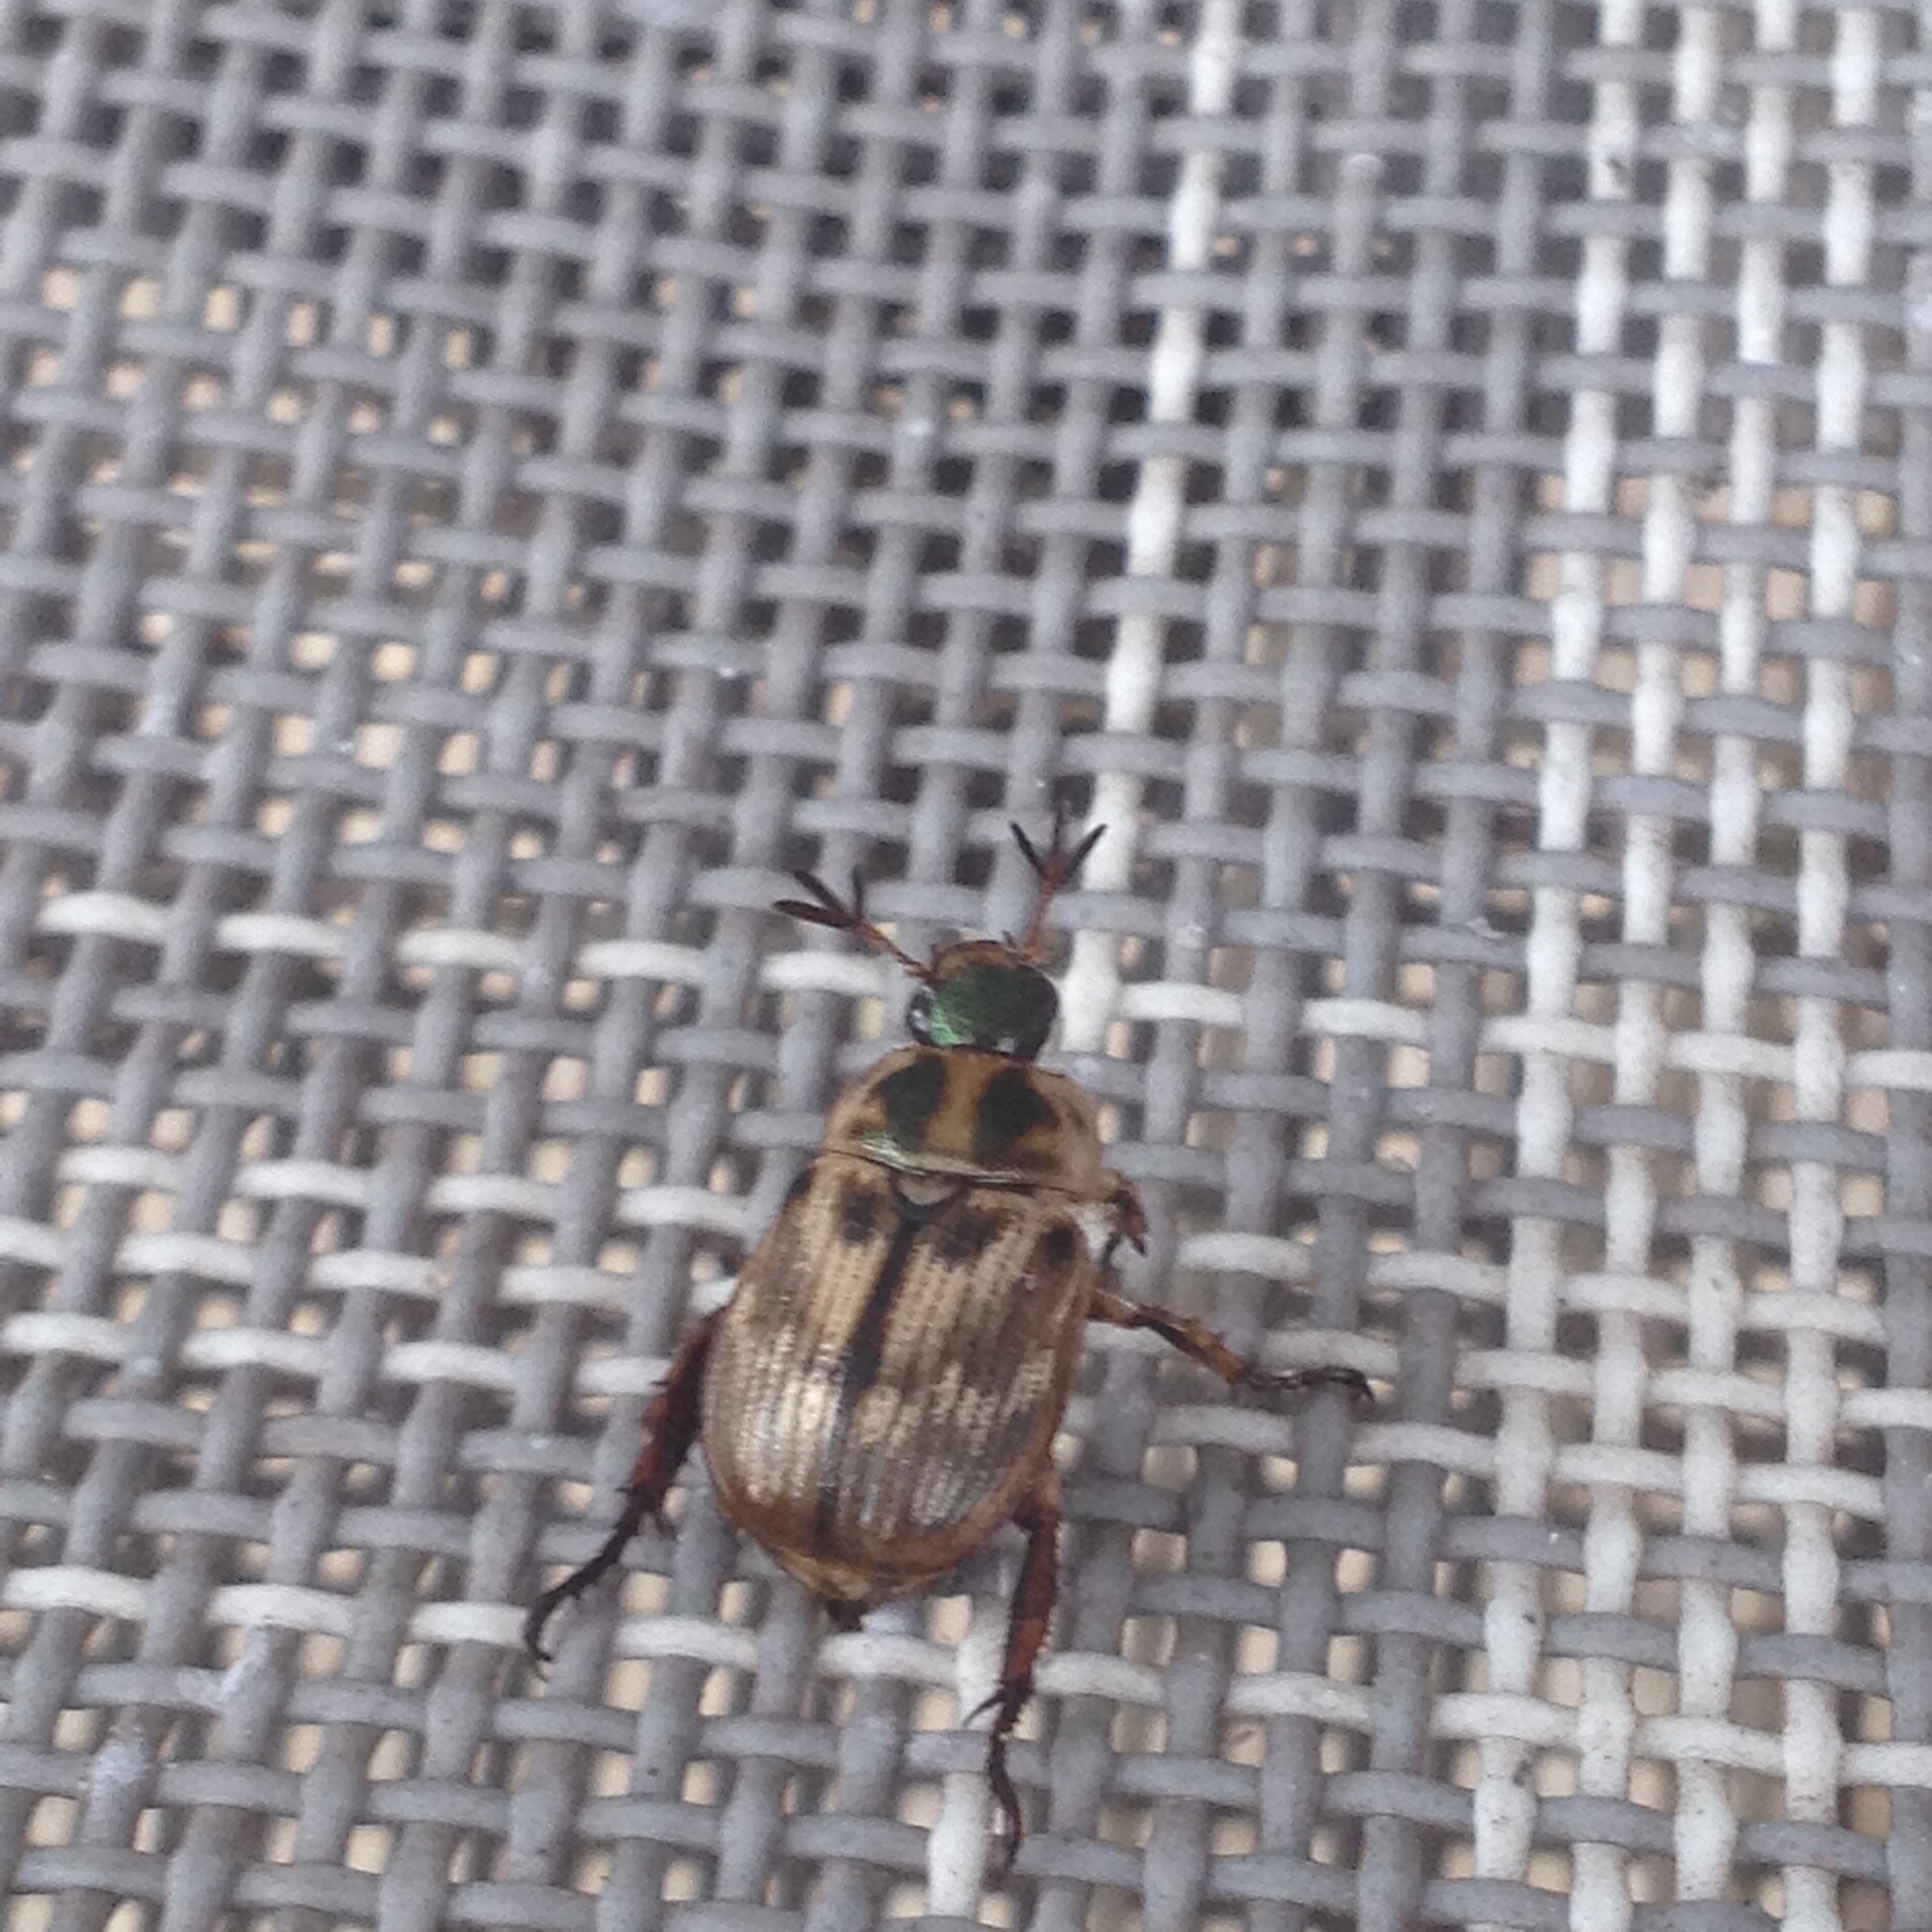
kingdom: Animalia
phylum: Arthropoda
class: Insecta
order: Coleoptera
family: Scarabaeidae
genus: Exomala
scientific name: Exomala orientalis
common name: Oriental beetle
